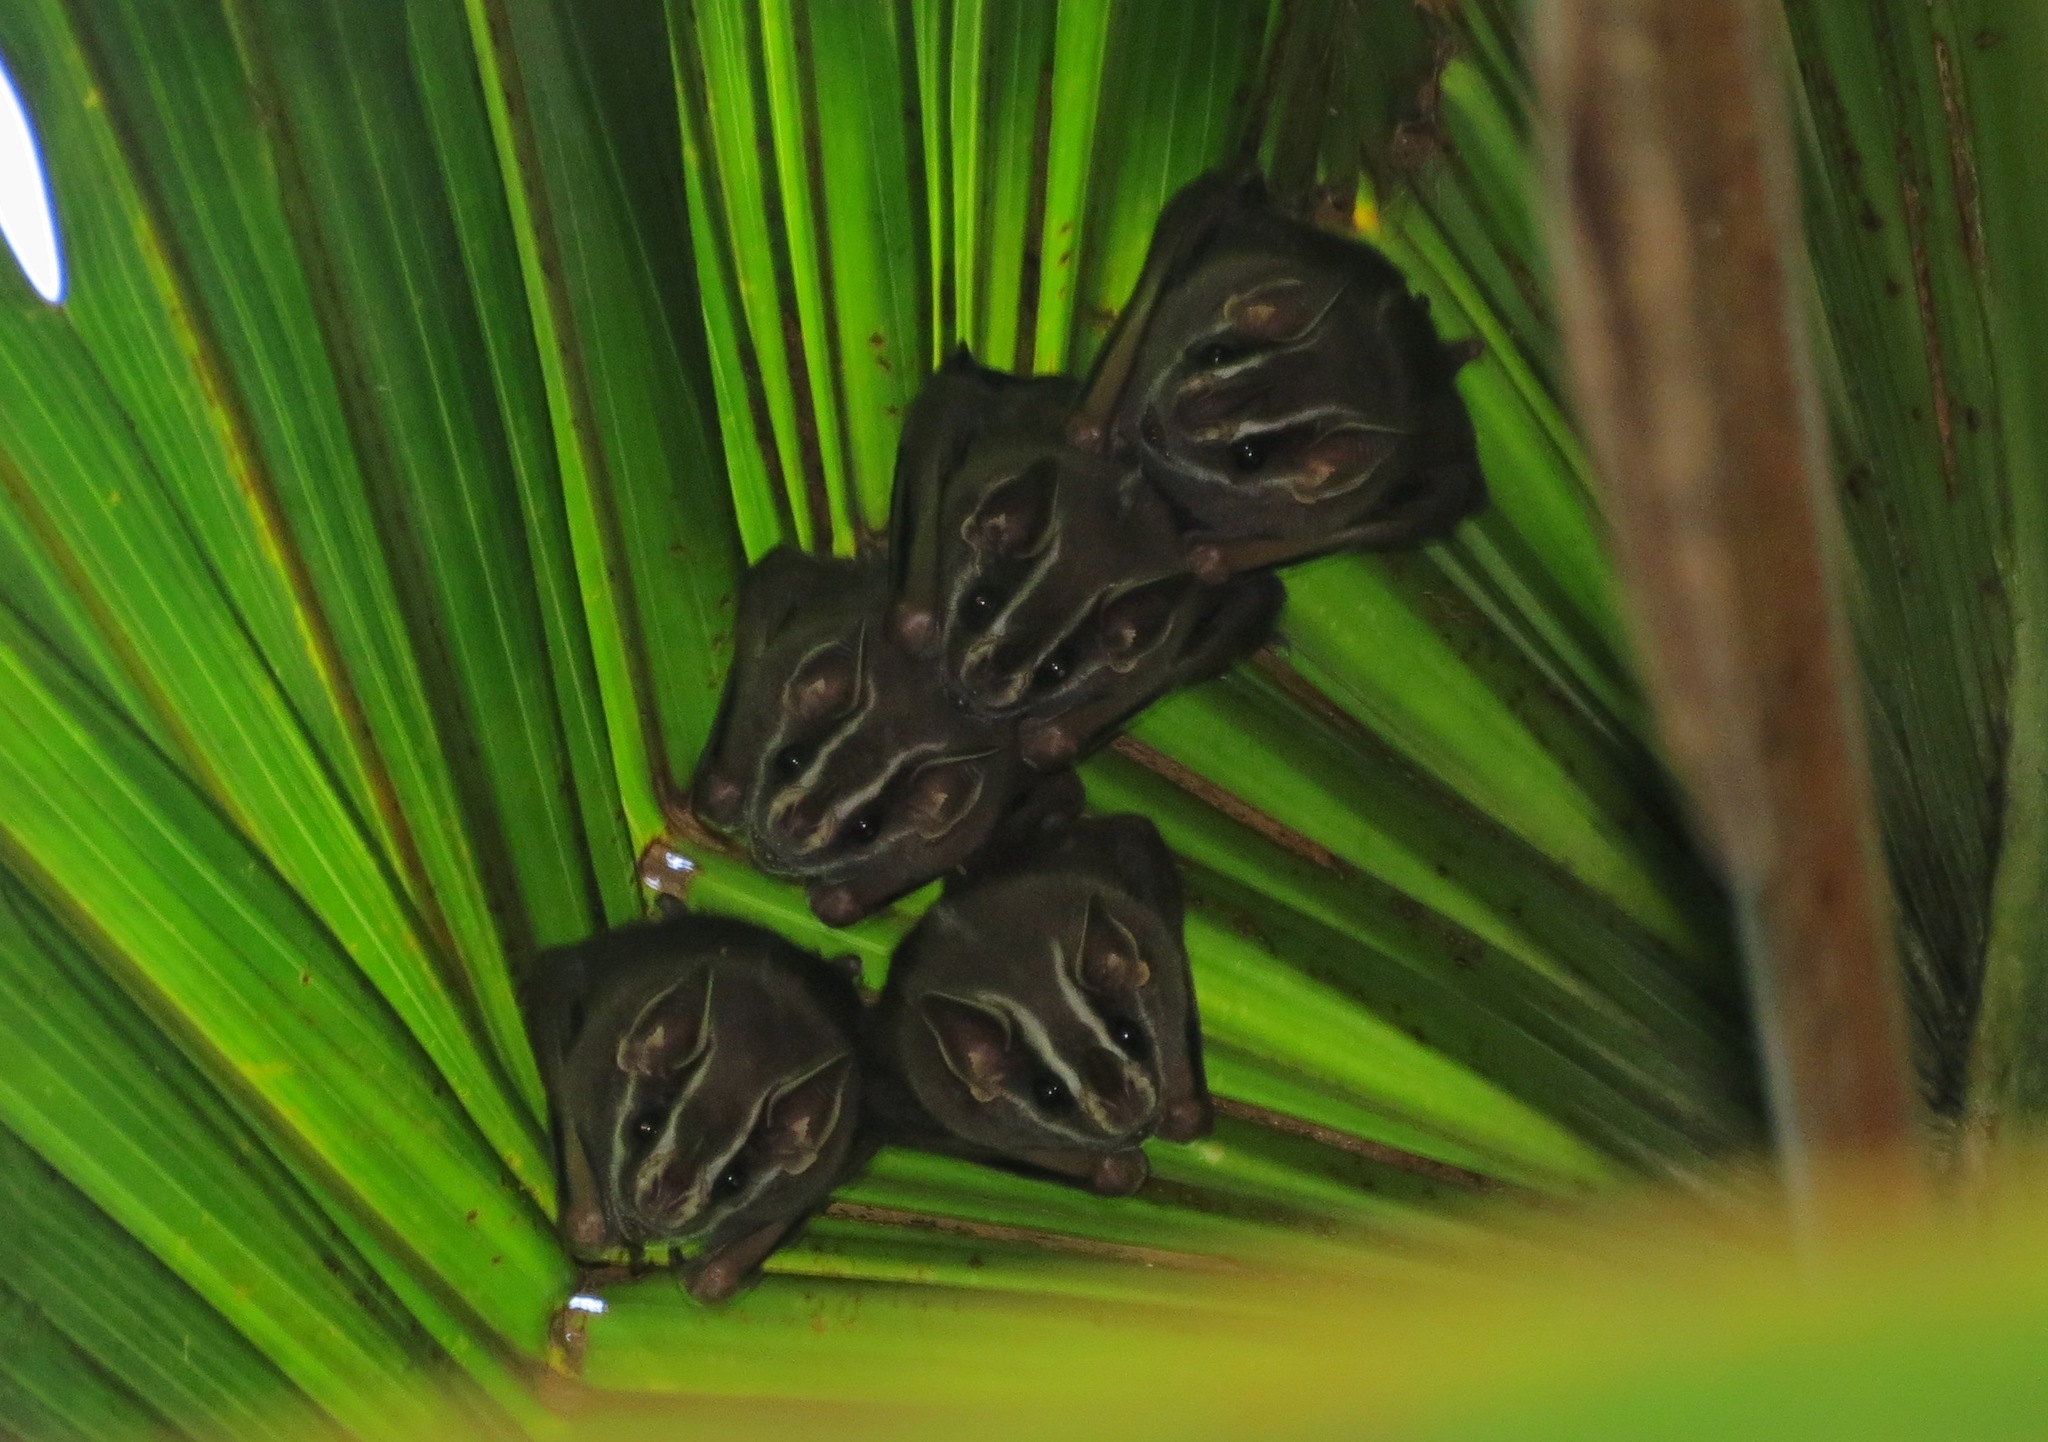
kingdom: Animalia
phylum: Chordata
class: Mammalia
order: Chiroptera
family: Phyllostomidae
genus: Uroderma
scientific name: Uroderma bilobatum
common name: Common tent-making bat
